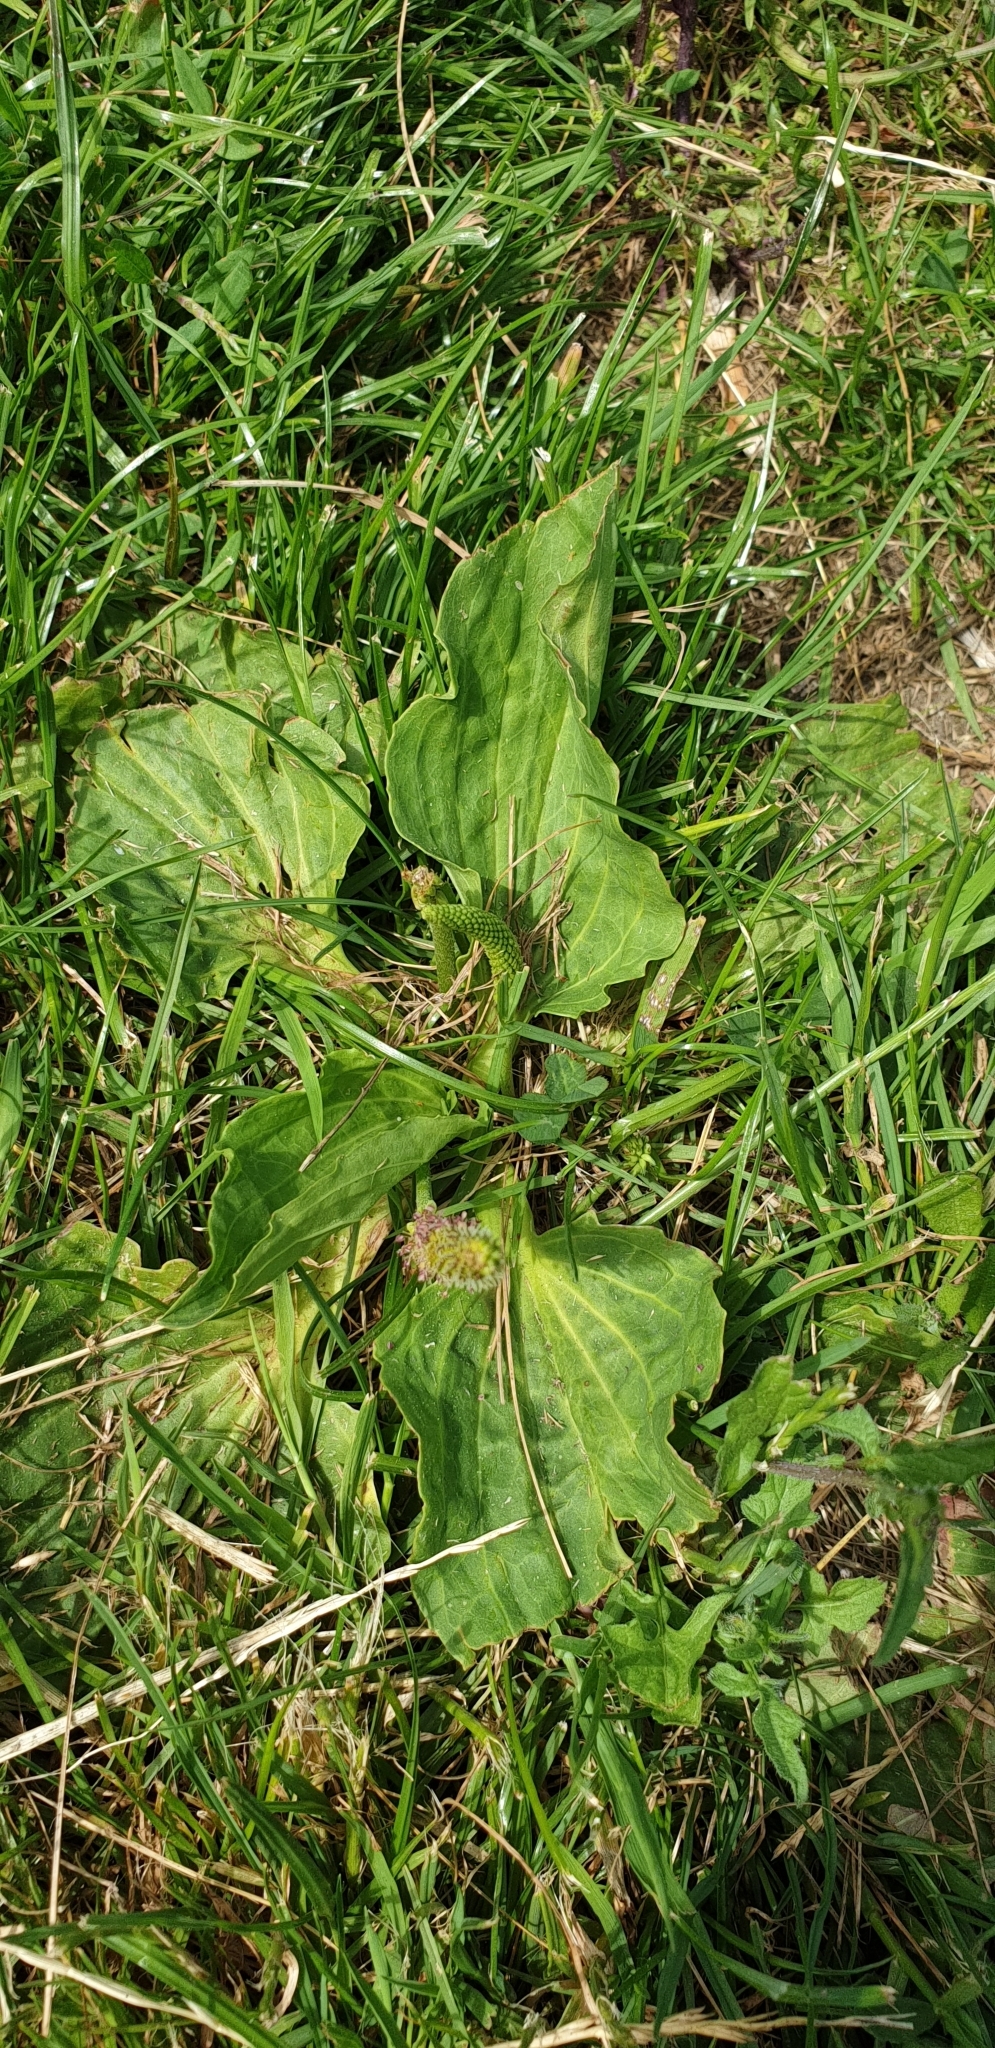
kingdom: Plantae
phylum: Tracheophyta
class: Magnoliopsida
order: Lamiales
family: Plantaginaceae
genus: Plantago
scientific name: Plantago major
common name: Common plantain
